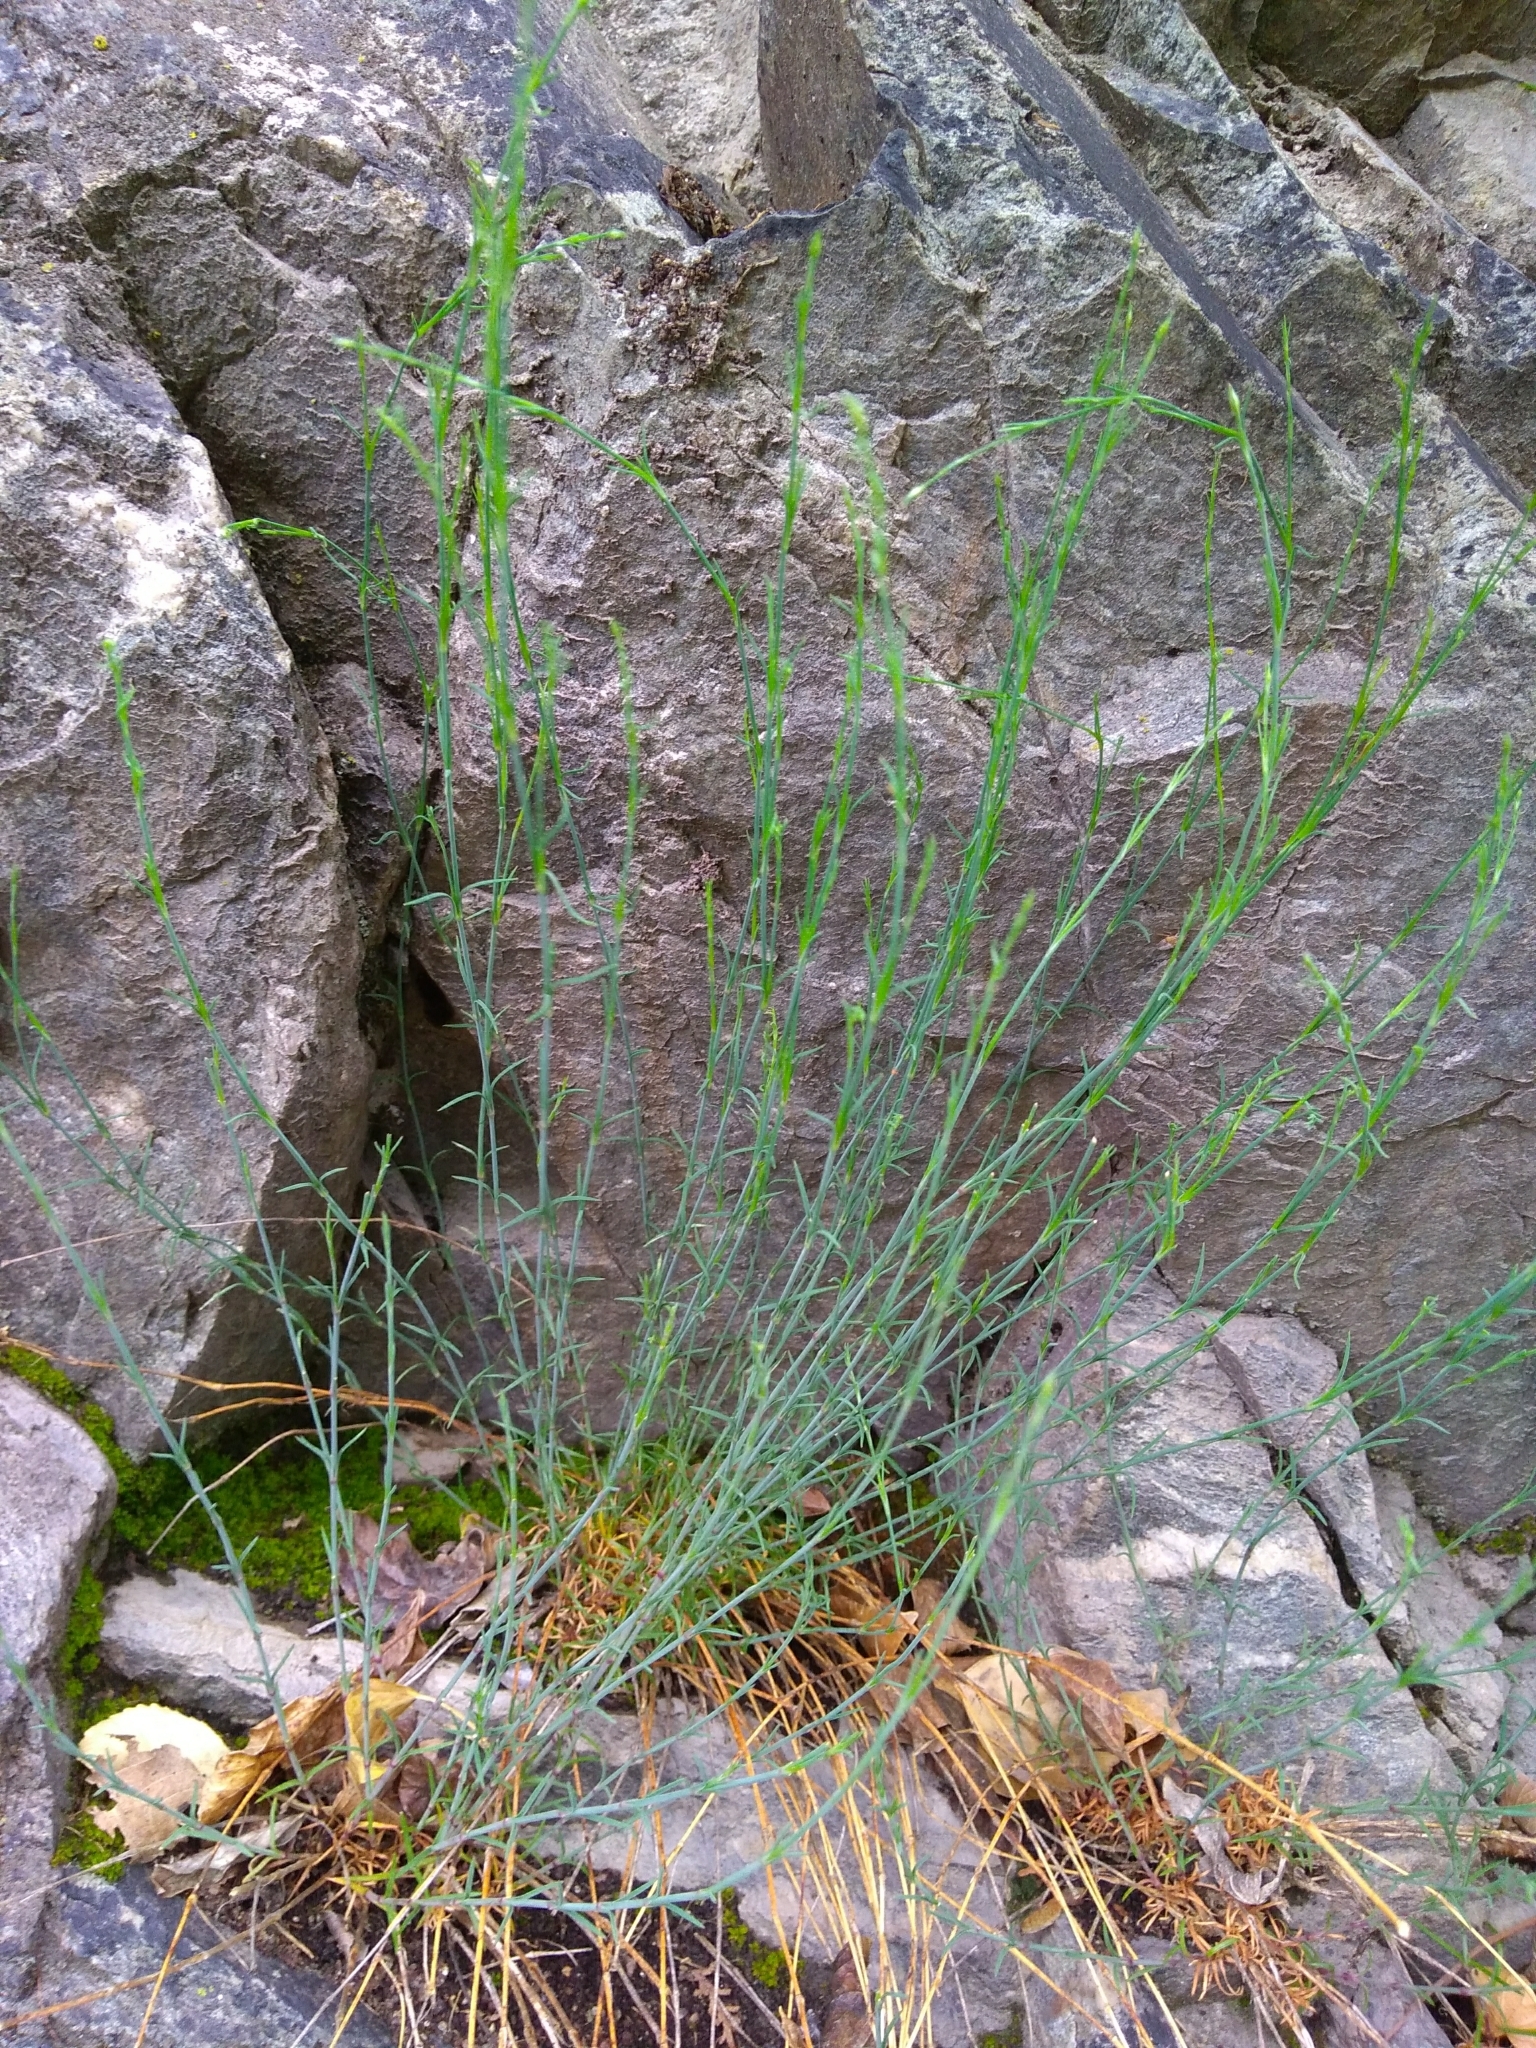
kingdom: Plantae
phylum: Tracheophyta
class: Magnoliopsida
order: Caryophyllales
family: Caryophyllaceae
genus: Petrorhagia
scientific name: Petrorhagia saxifraga
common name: Tunicflower
